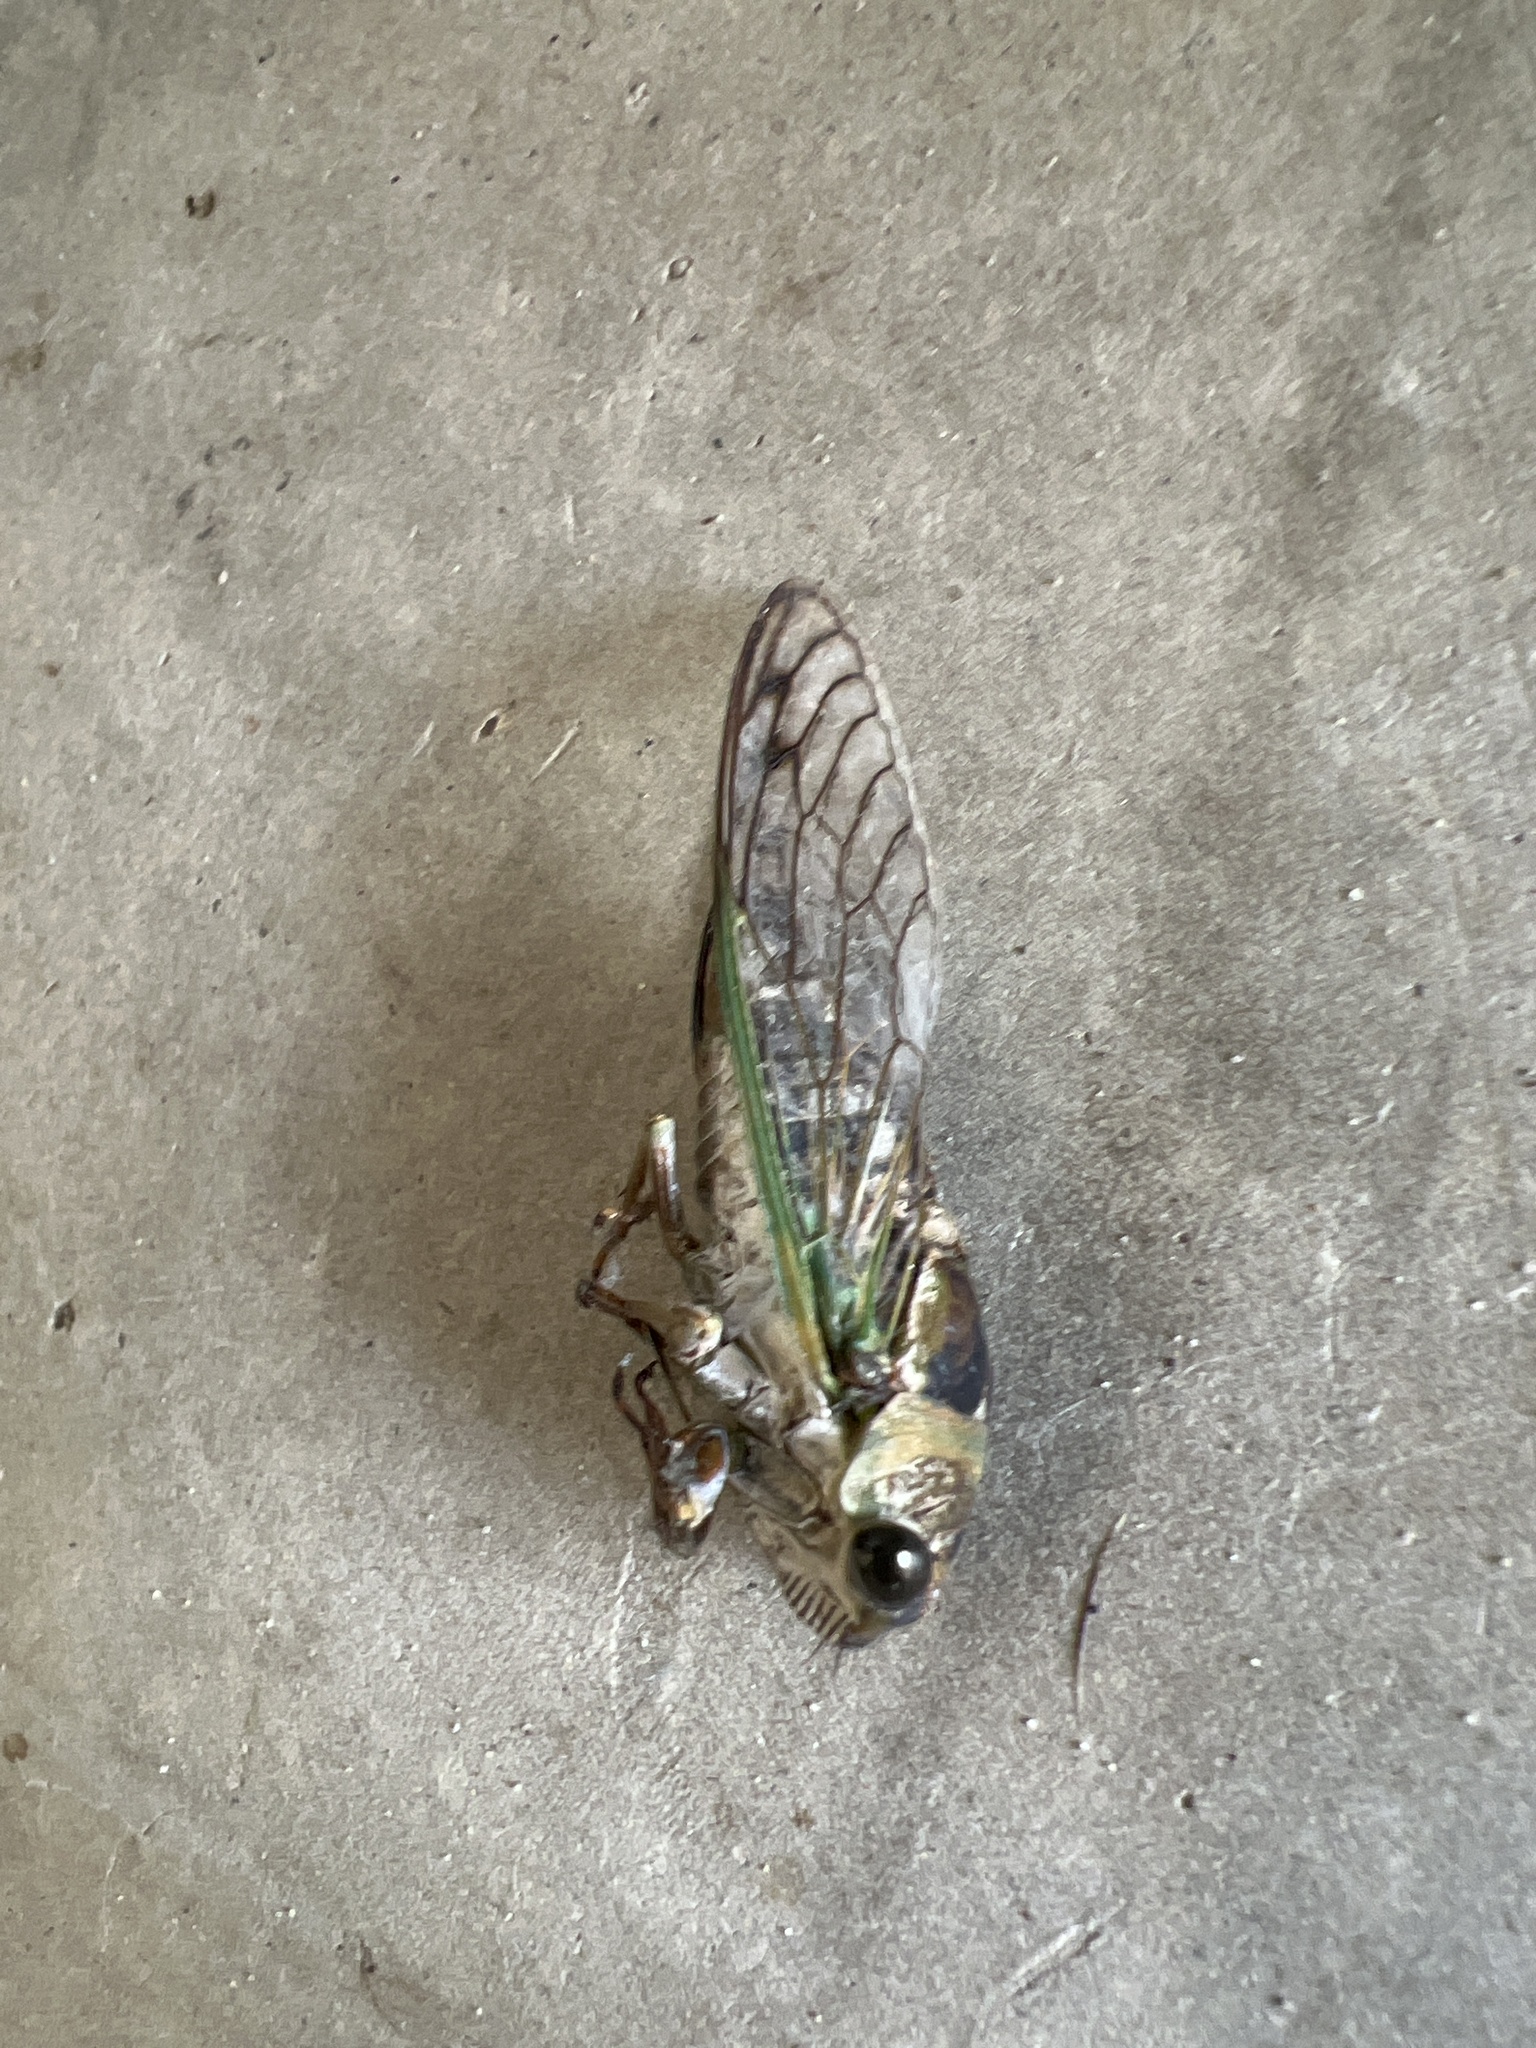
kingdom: Animalia
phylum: Arthropoda
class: Insecta
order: Hemiptera
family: Cicadidae
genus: Neotibicen
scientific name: Neotibicen davisi
